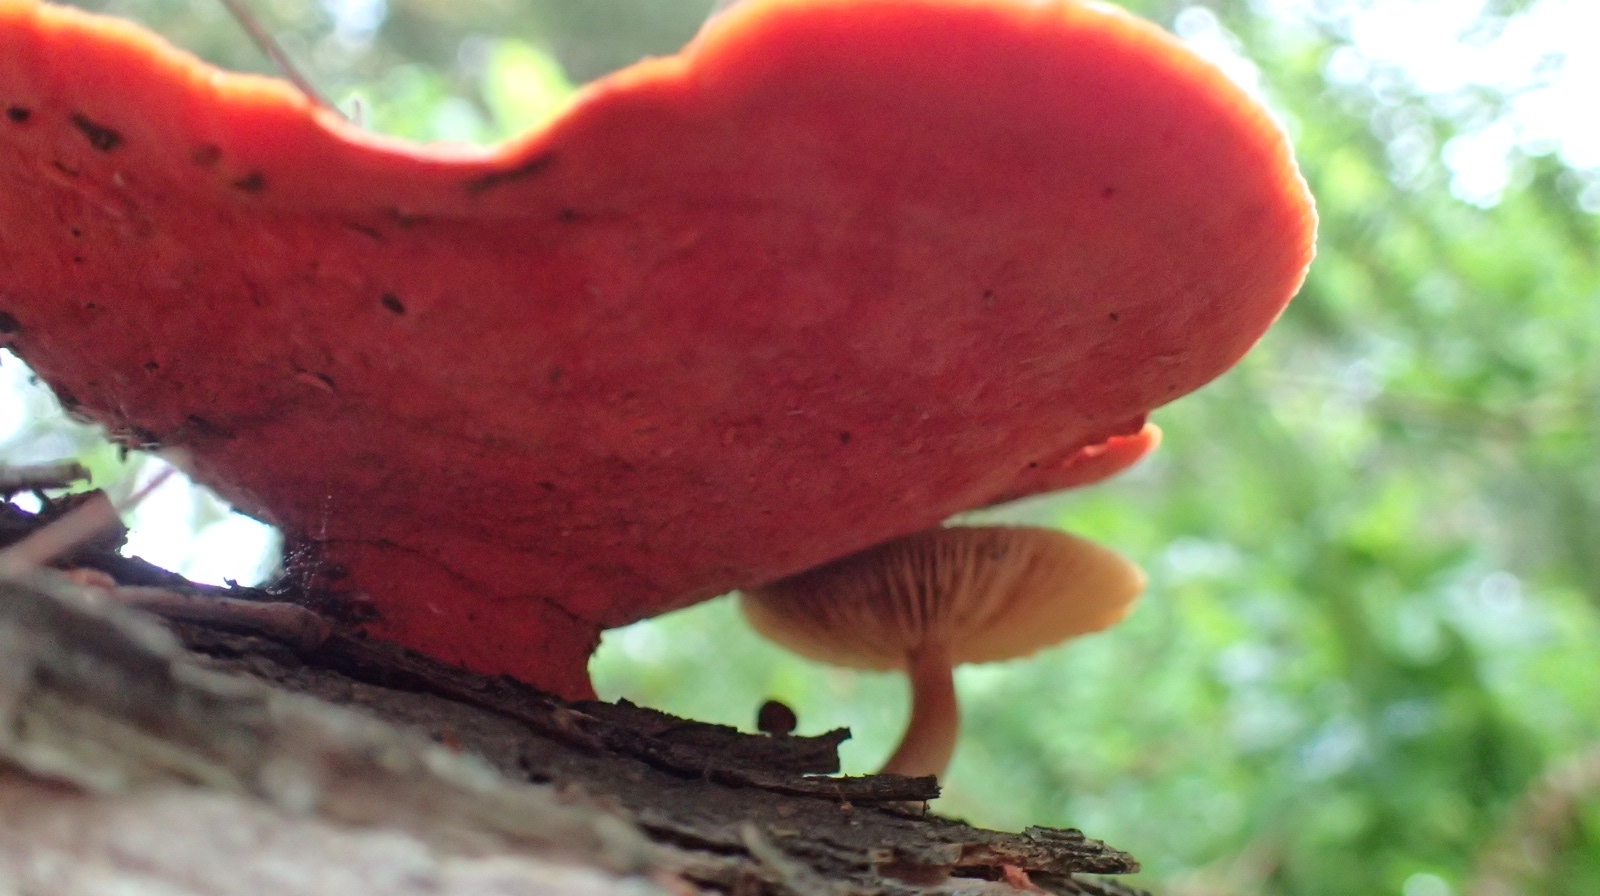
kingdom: Fungi
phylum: Basidiomycota
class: Agaricomycetes
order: Polyporales
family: Polyporaceae
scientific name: Polyporaceae
